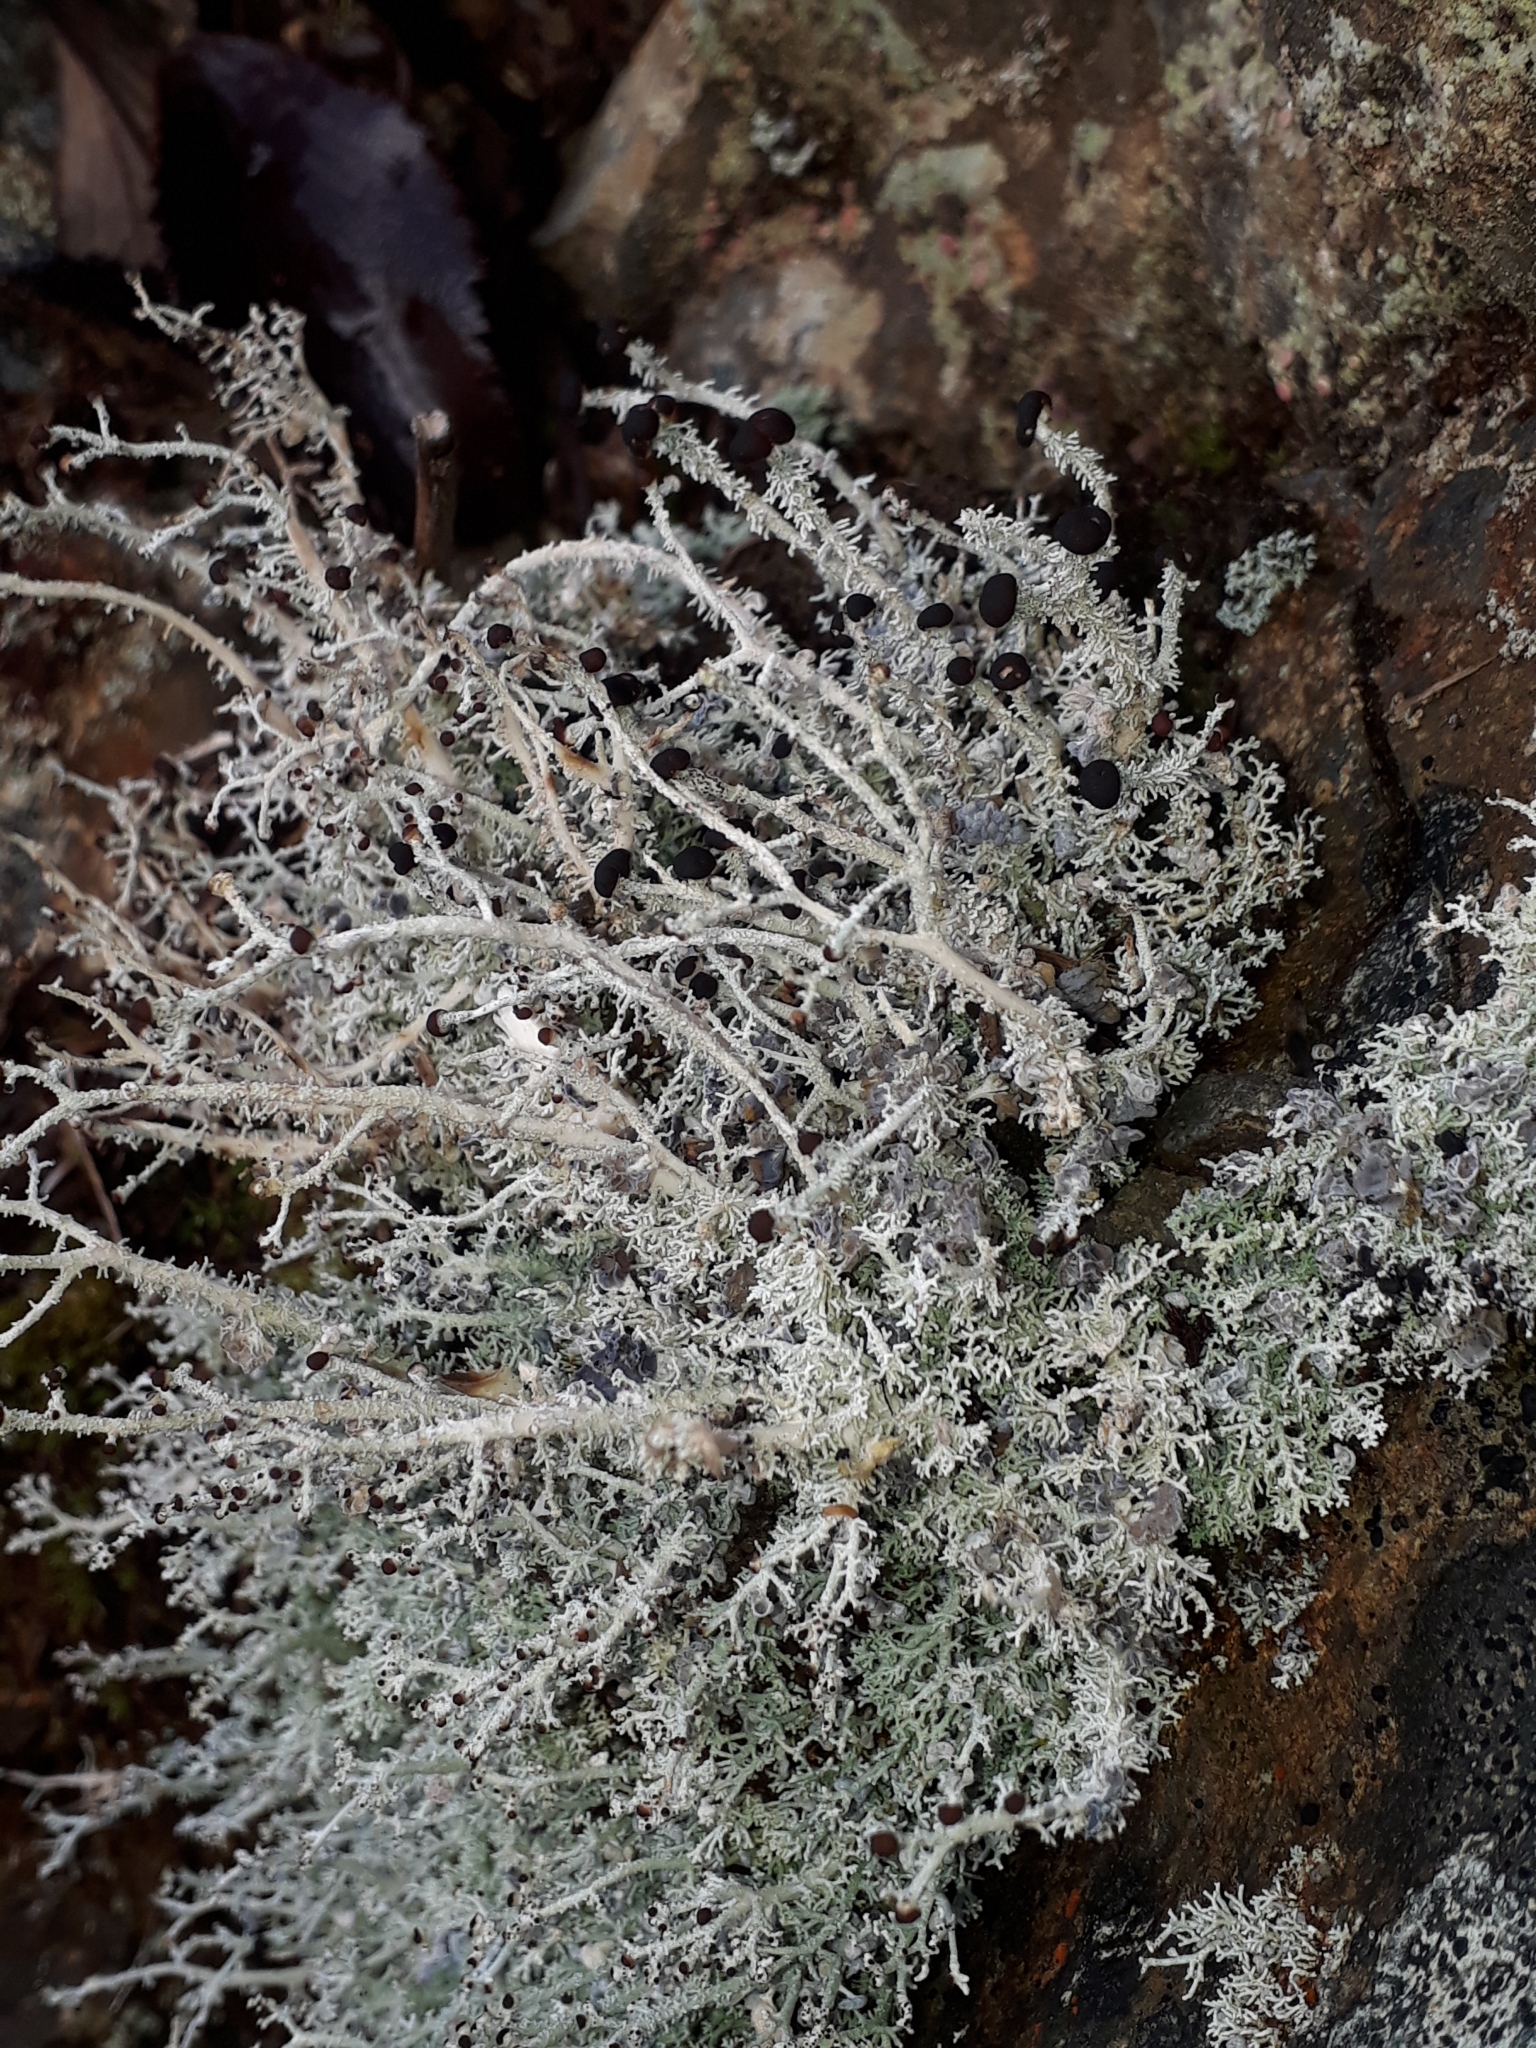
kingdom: Fungi
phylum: Ascomycota
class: Lecanoromycetes
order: Lecanorales
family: Stereocaulaceae
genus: Stereocaulon
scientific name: Stereocaulon
